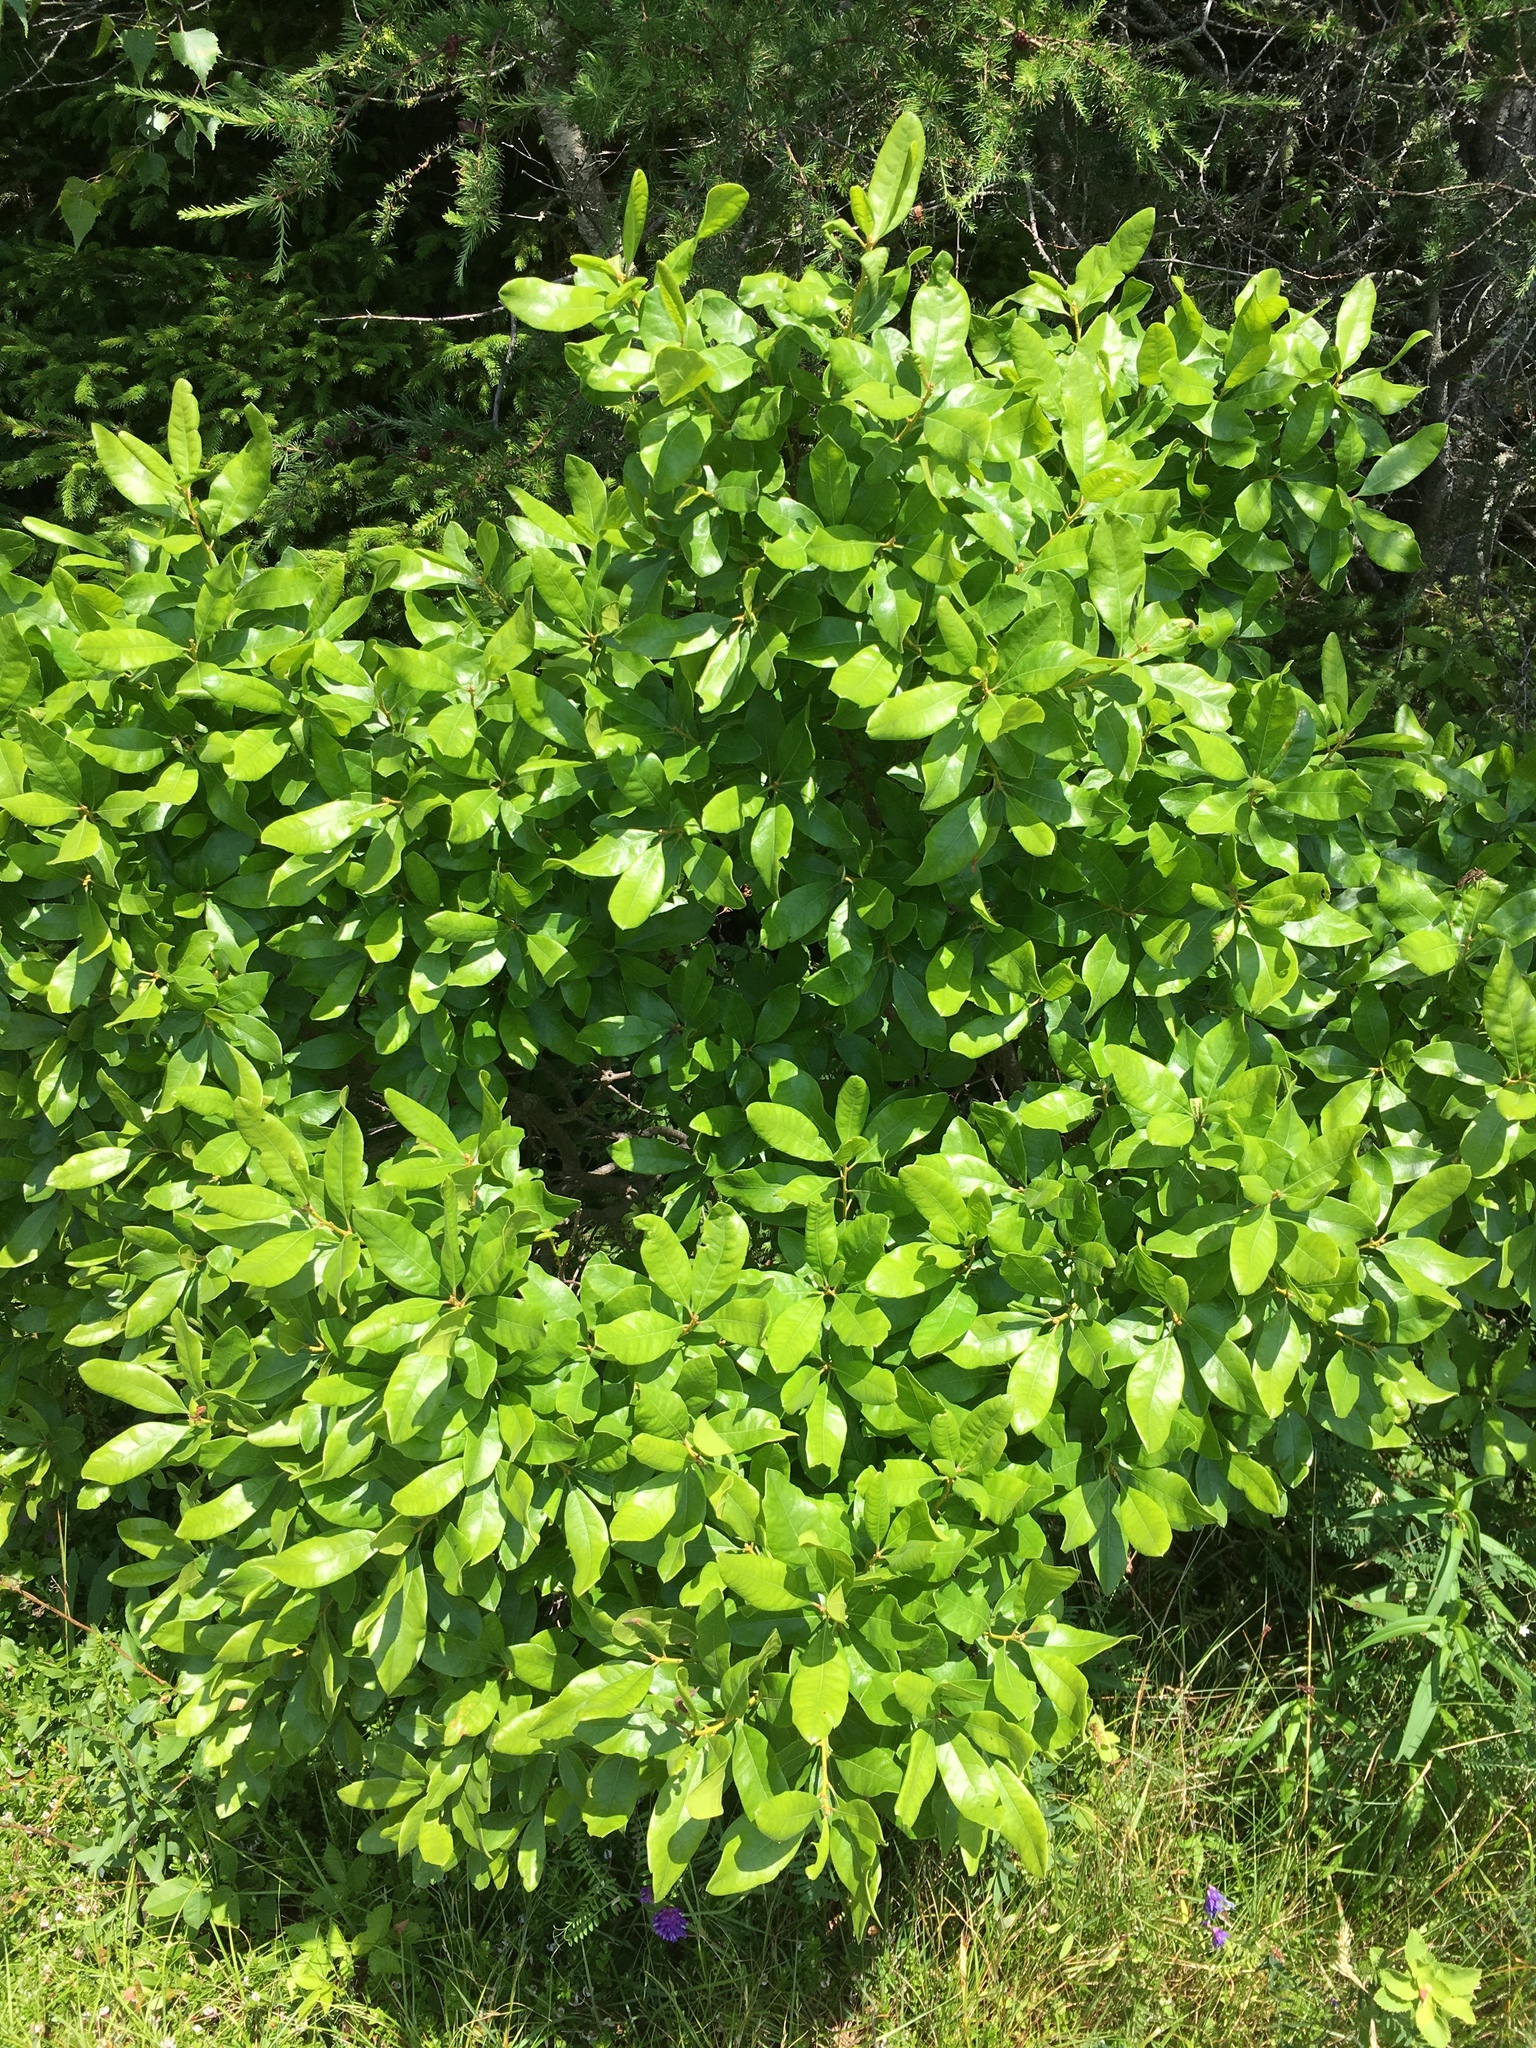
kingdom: Plantae
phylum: Tracheophyta
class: Magnoliopsida
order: Fagales
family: Myricaceae
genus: Morella
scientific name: Morella pensylvanica
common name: Northern bayberry
